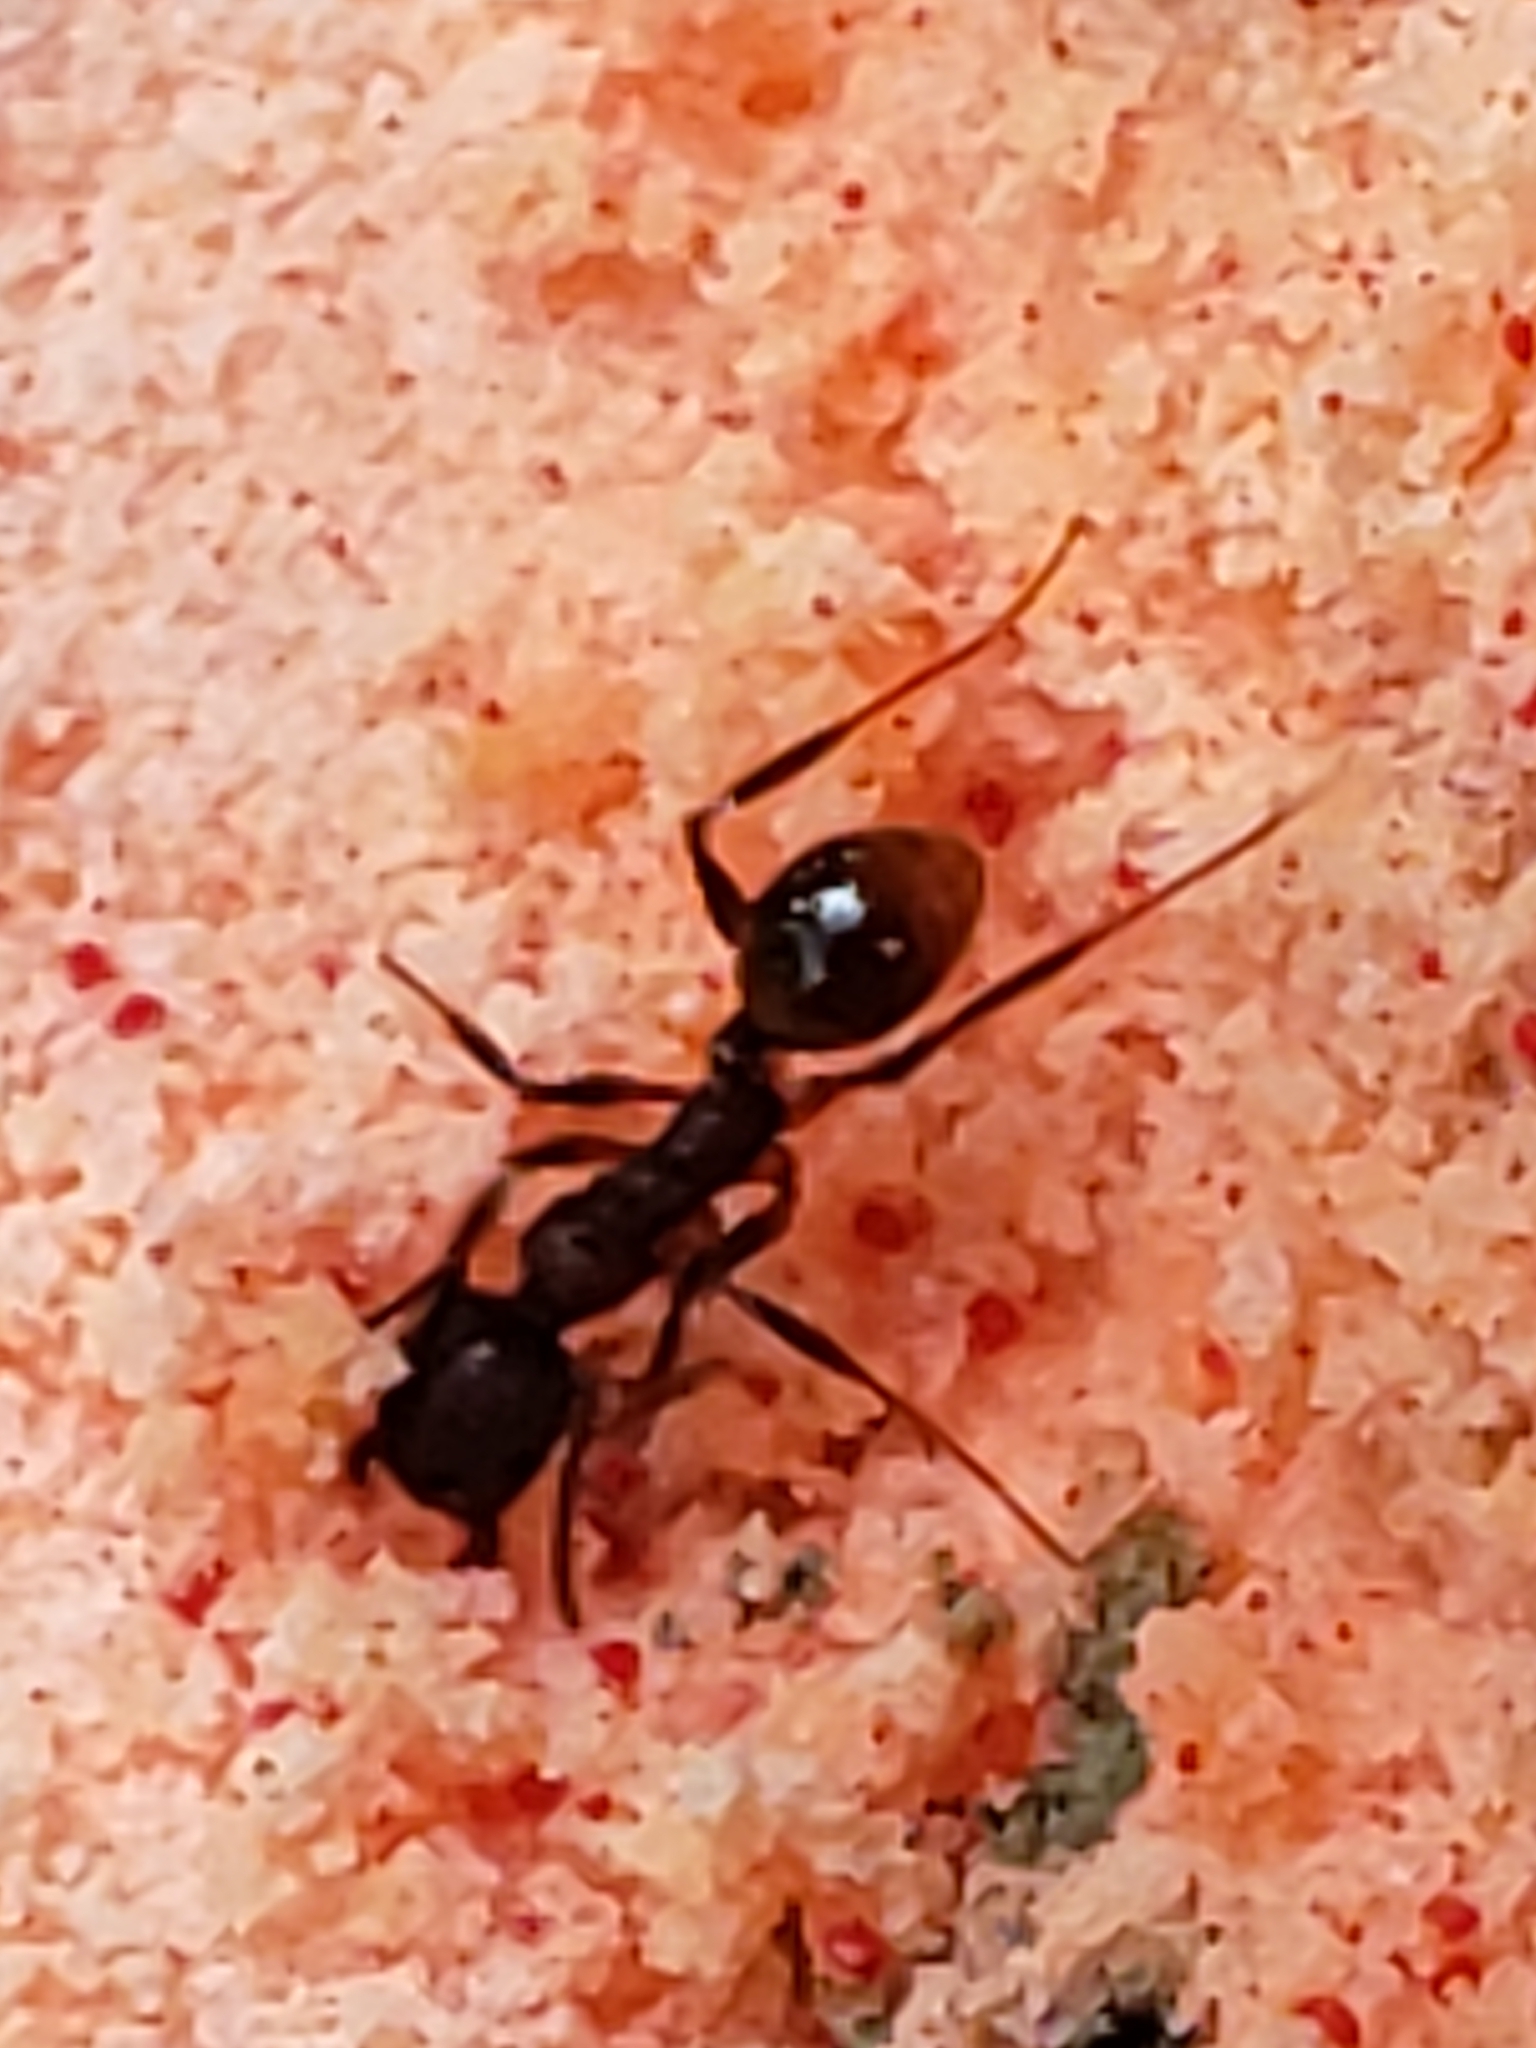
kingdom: Animalia
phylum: Arthropoda
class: Insecta
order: Hymenoptera
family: Formicidae
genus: Aphaenogaster
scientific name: Aphaenogaster fulva
